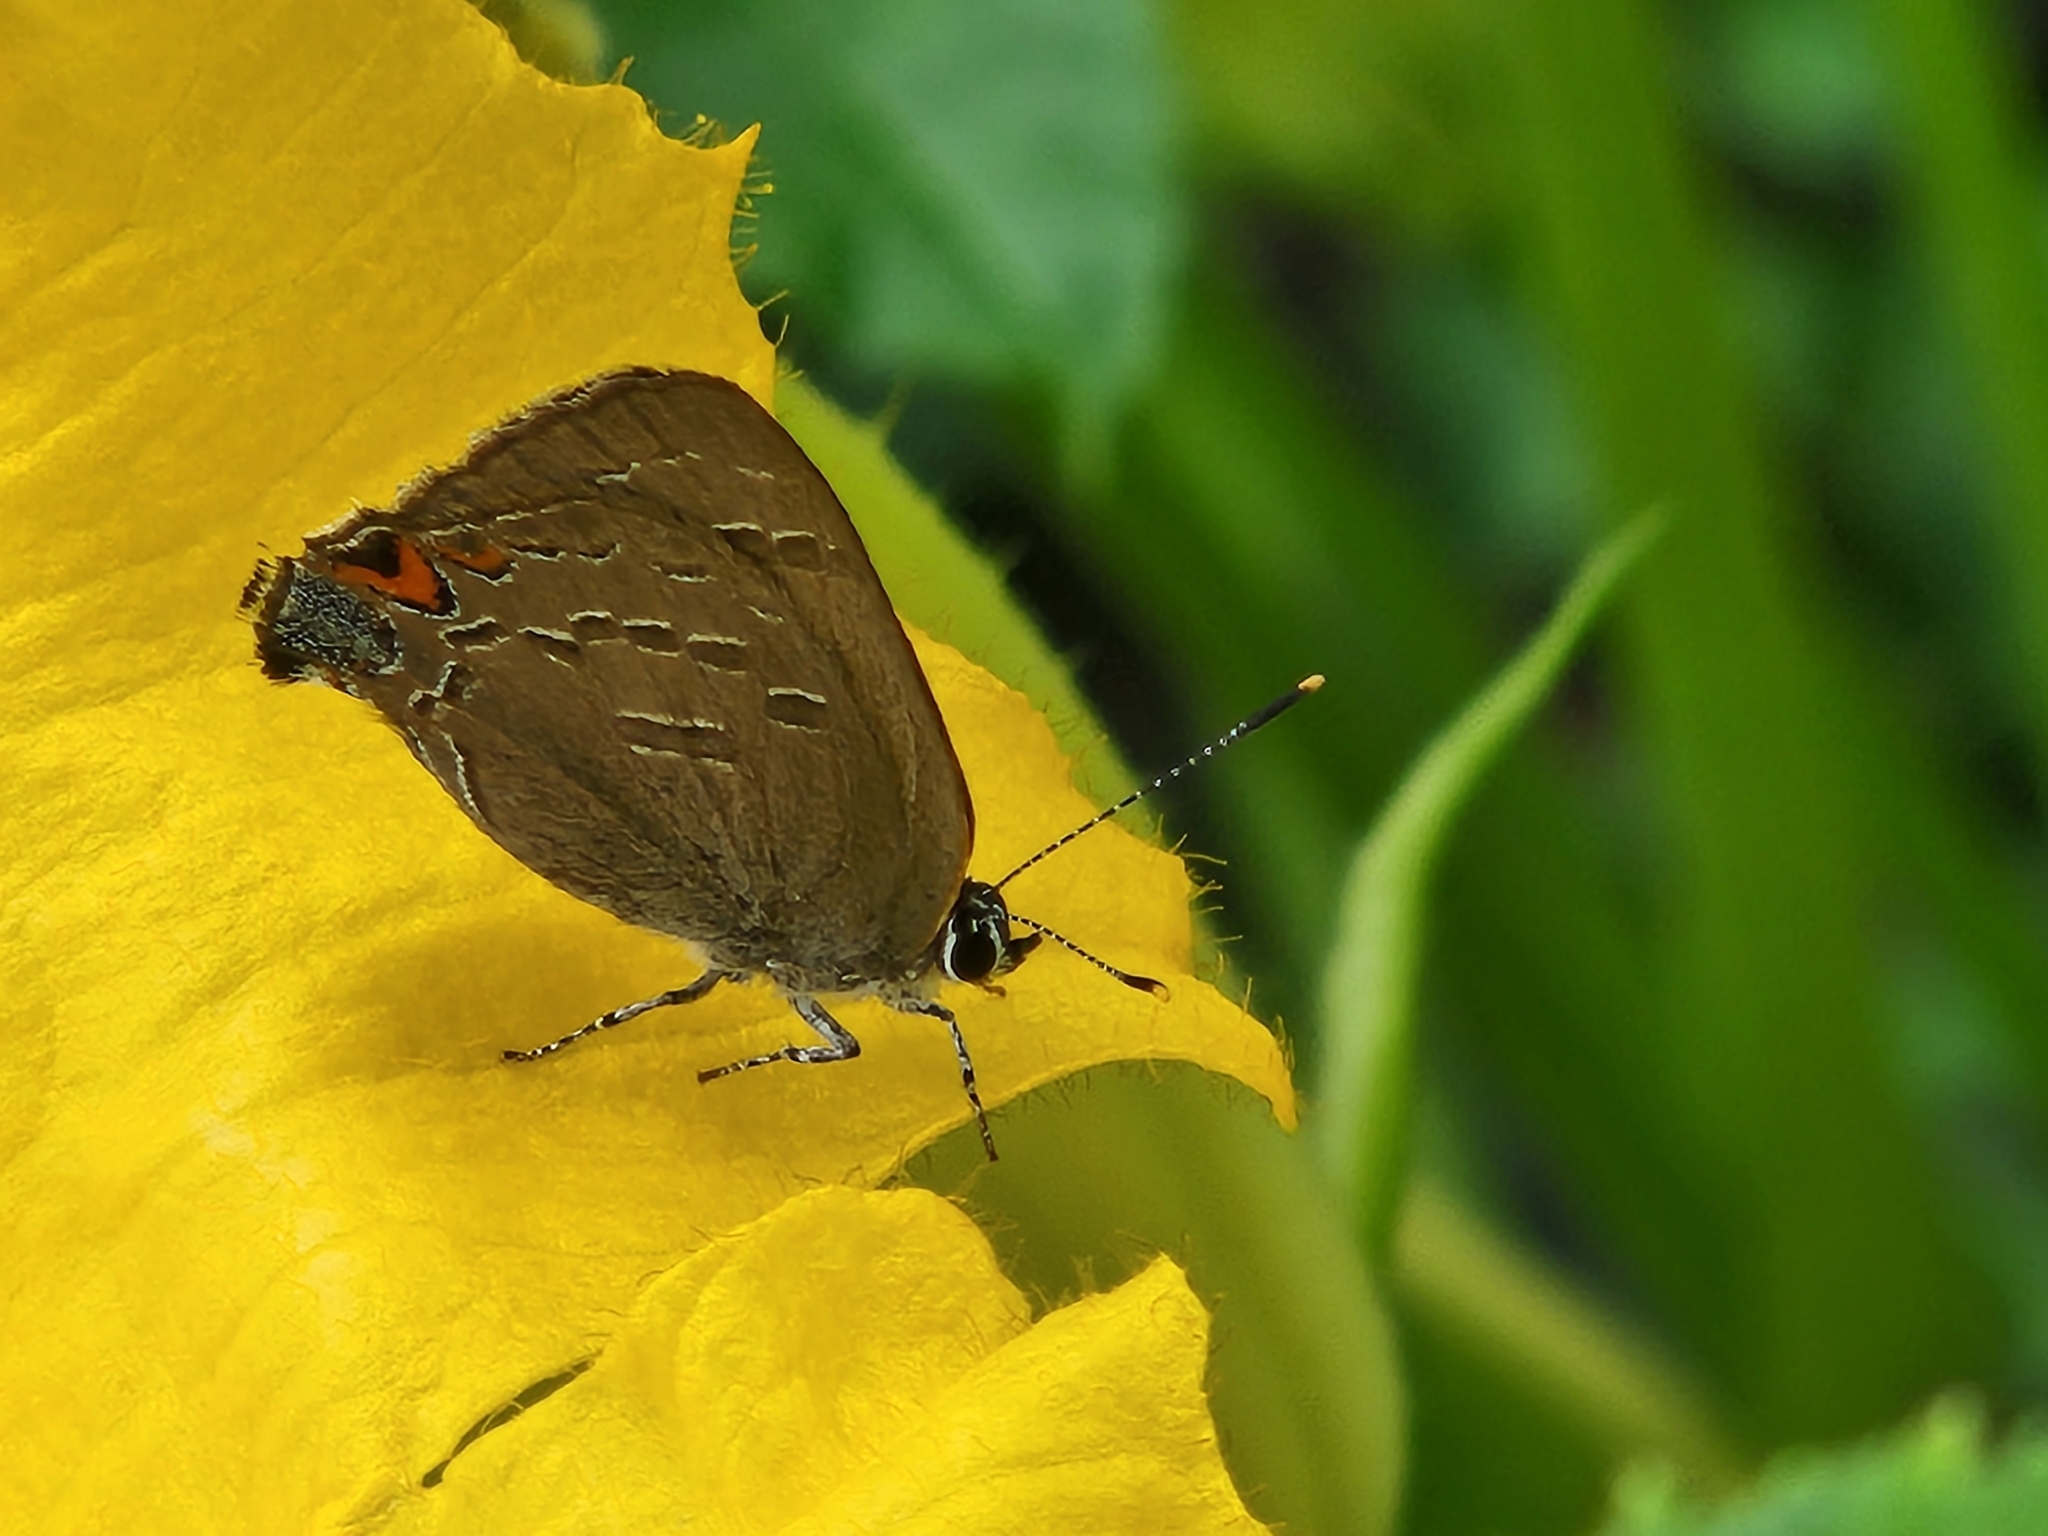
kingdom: Animalia
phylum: Arthropoda
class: Insecta
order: Lepidoptera
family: Lycaenidae
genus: Satyrium
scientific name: Satyrium calanus
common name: Banded hairstreak
